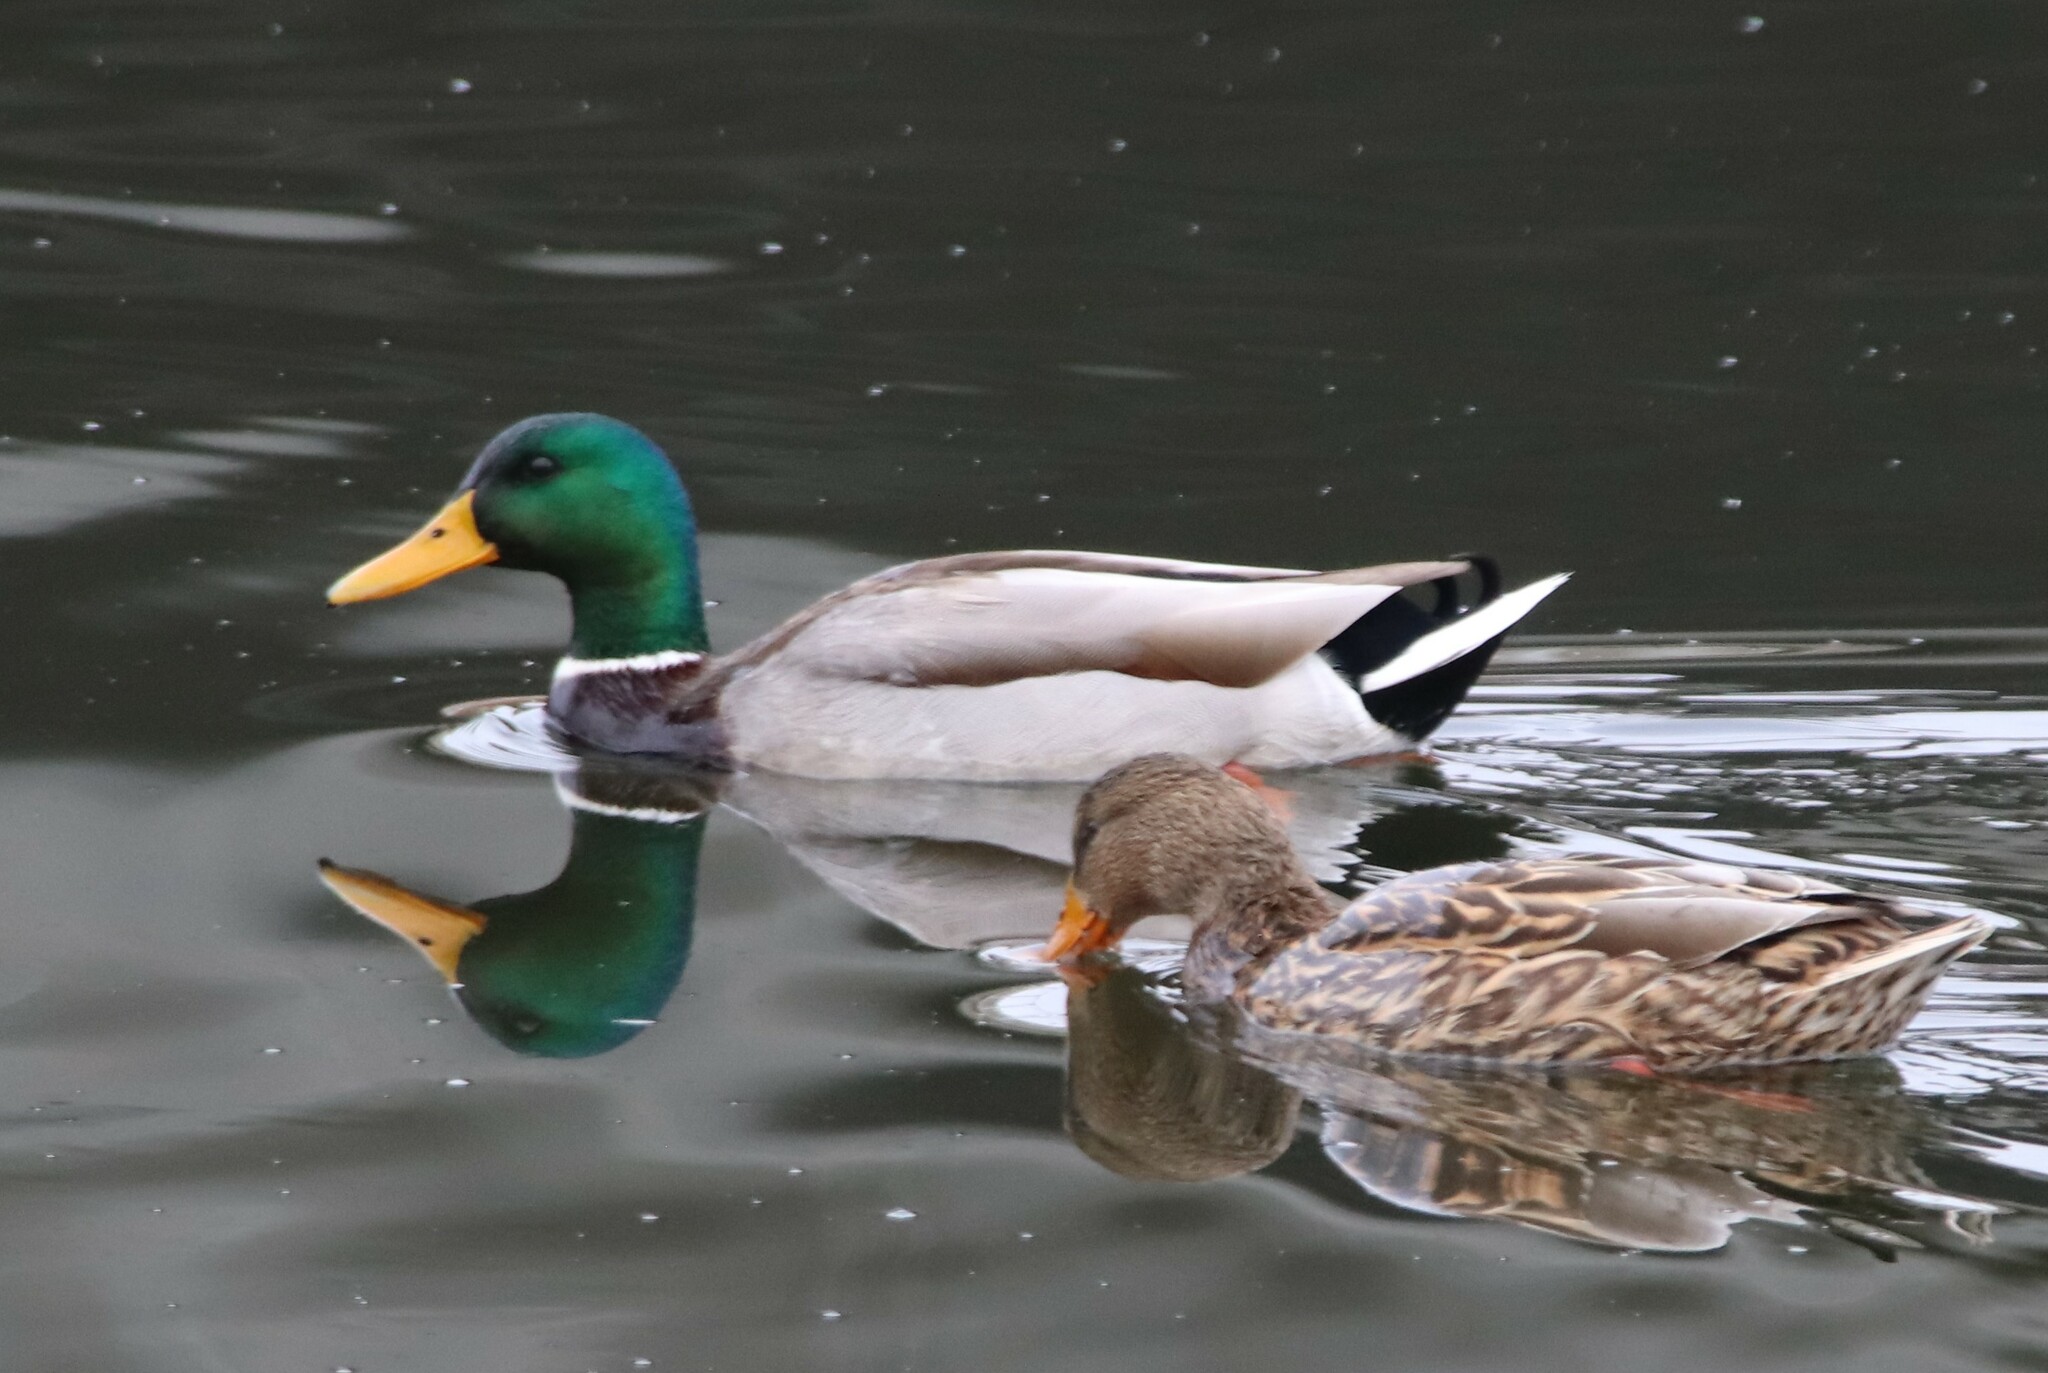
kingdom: Animalia
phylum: Chordata
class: Aves
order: Anseriformes
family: Anatidae
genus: Anas
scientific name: Anas platyrhynchos
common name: Mallard
